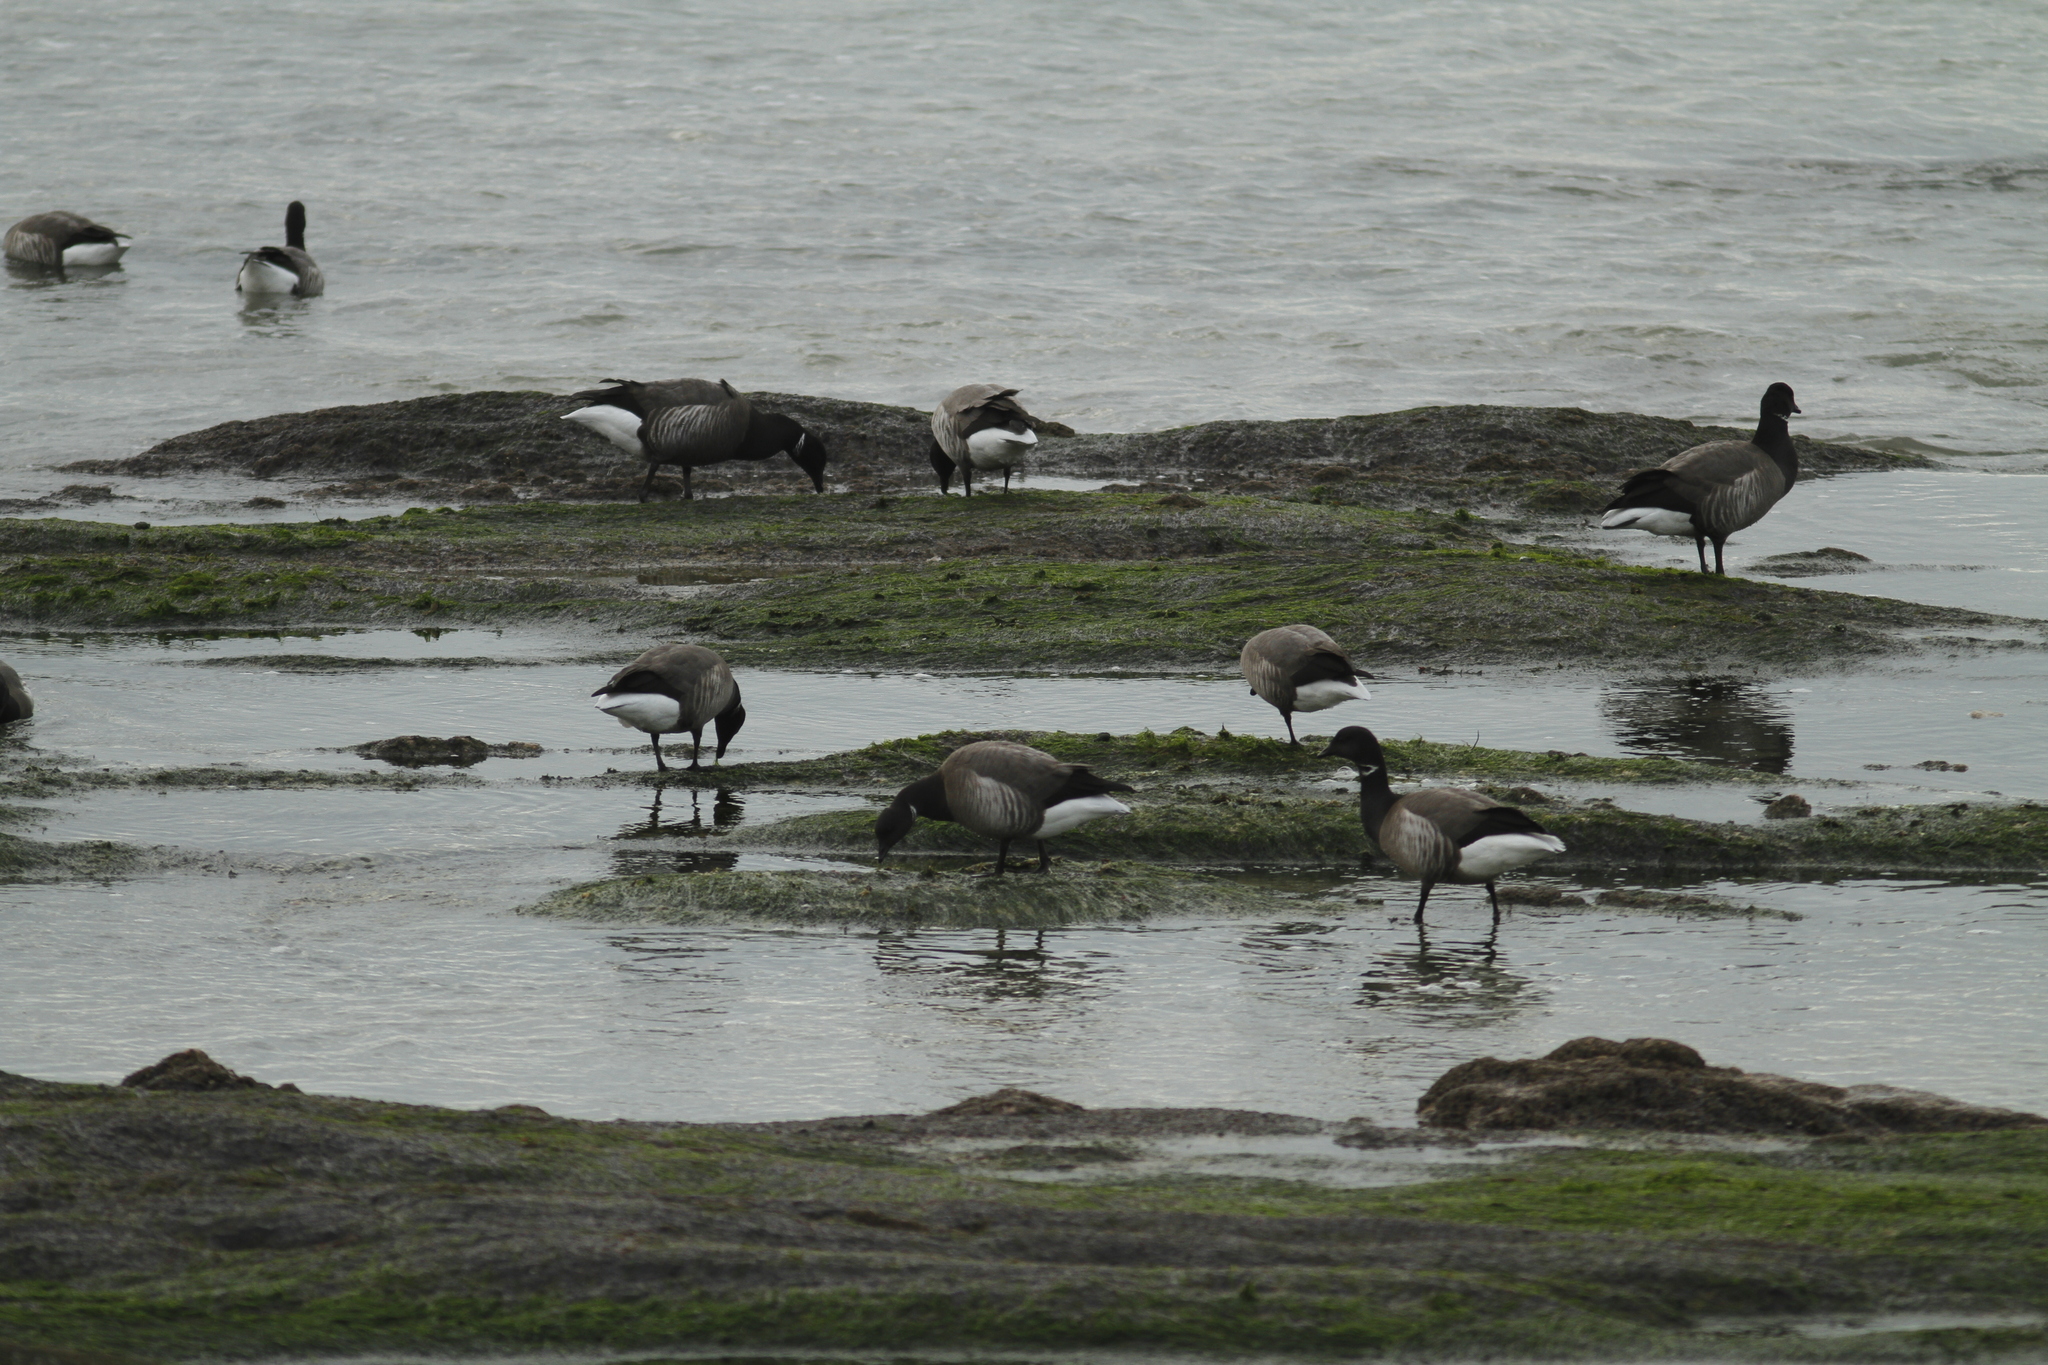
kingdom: Animalia
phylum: Chordata
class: Aves
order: Anseriformes
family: Anatidae
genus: Branta
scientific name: Branta bernicla
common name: Brant goose
